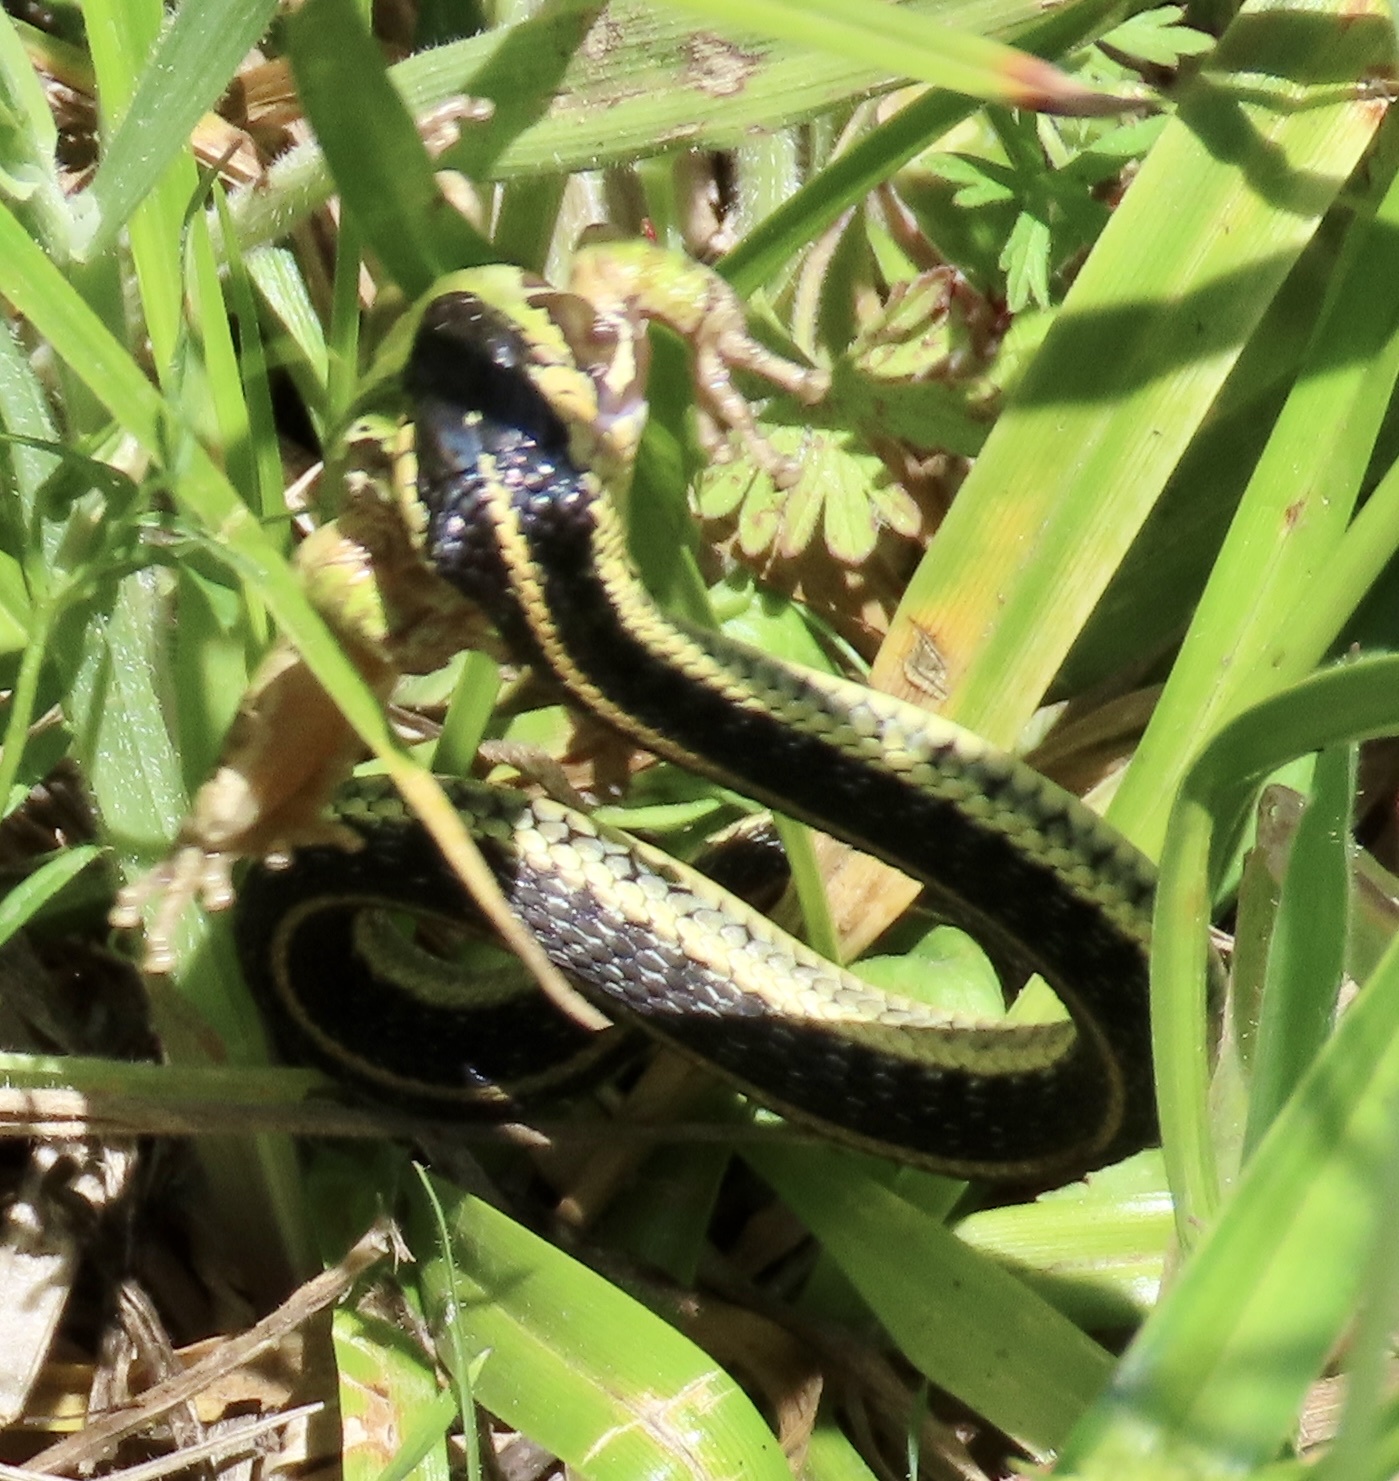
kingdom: Animalia
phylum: Chordata
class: Squamata
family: Colubridae
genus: Thamnophis
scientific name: Thamnophis atratus
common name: Pacific coast aquatic garter snake
